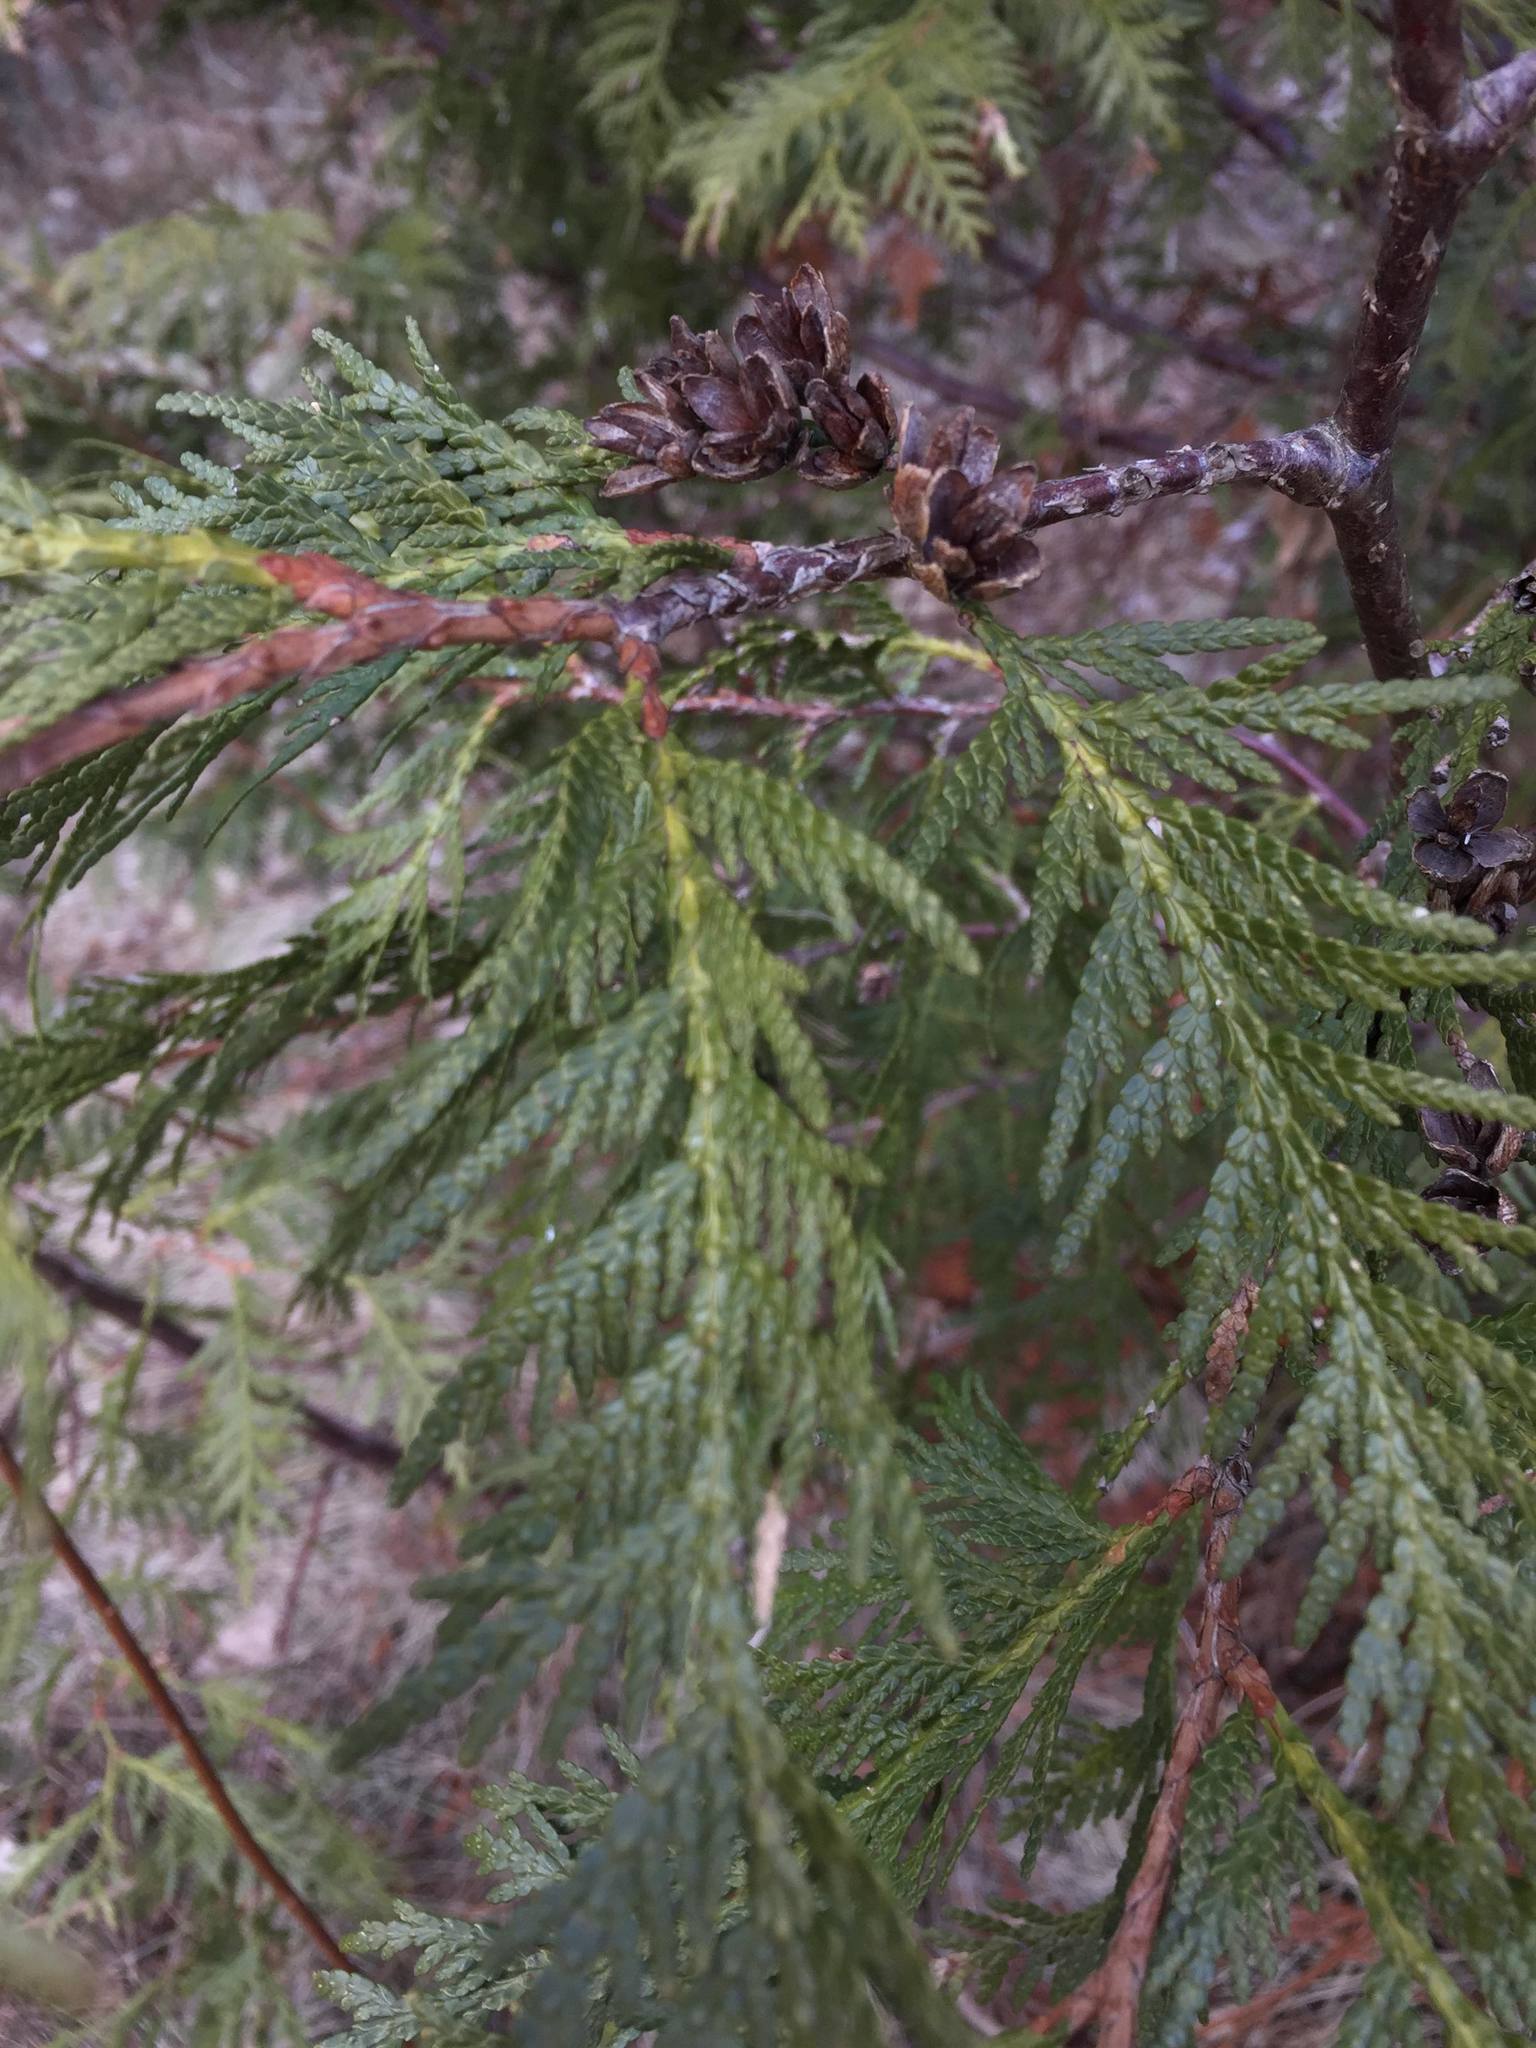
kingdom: Plantae
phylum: Tracheophyta
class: Pinopsida
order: Pinales
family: Cupressaceae
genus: Thuja
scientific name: Thuja occidentalis
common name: Northern white-cedar
